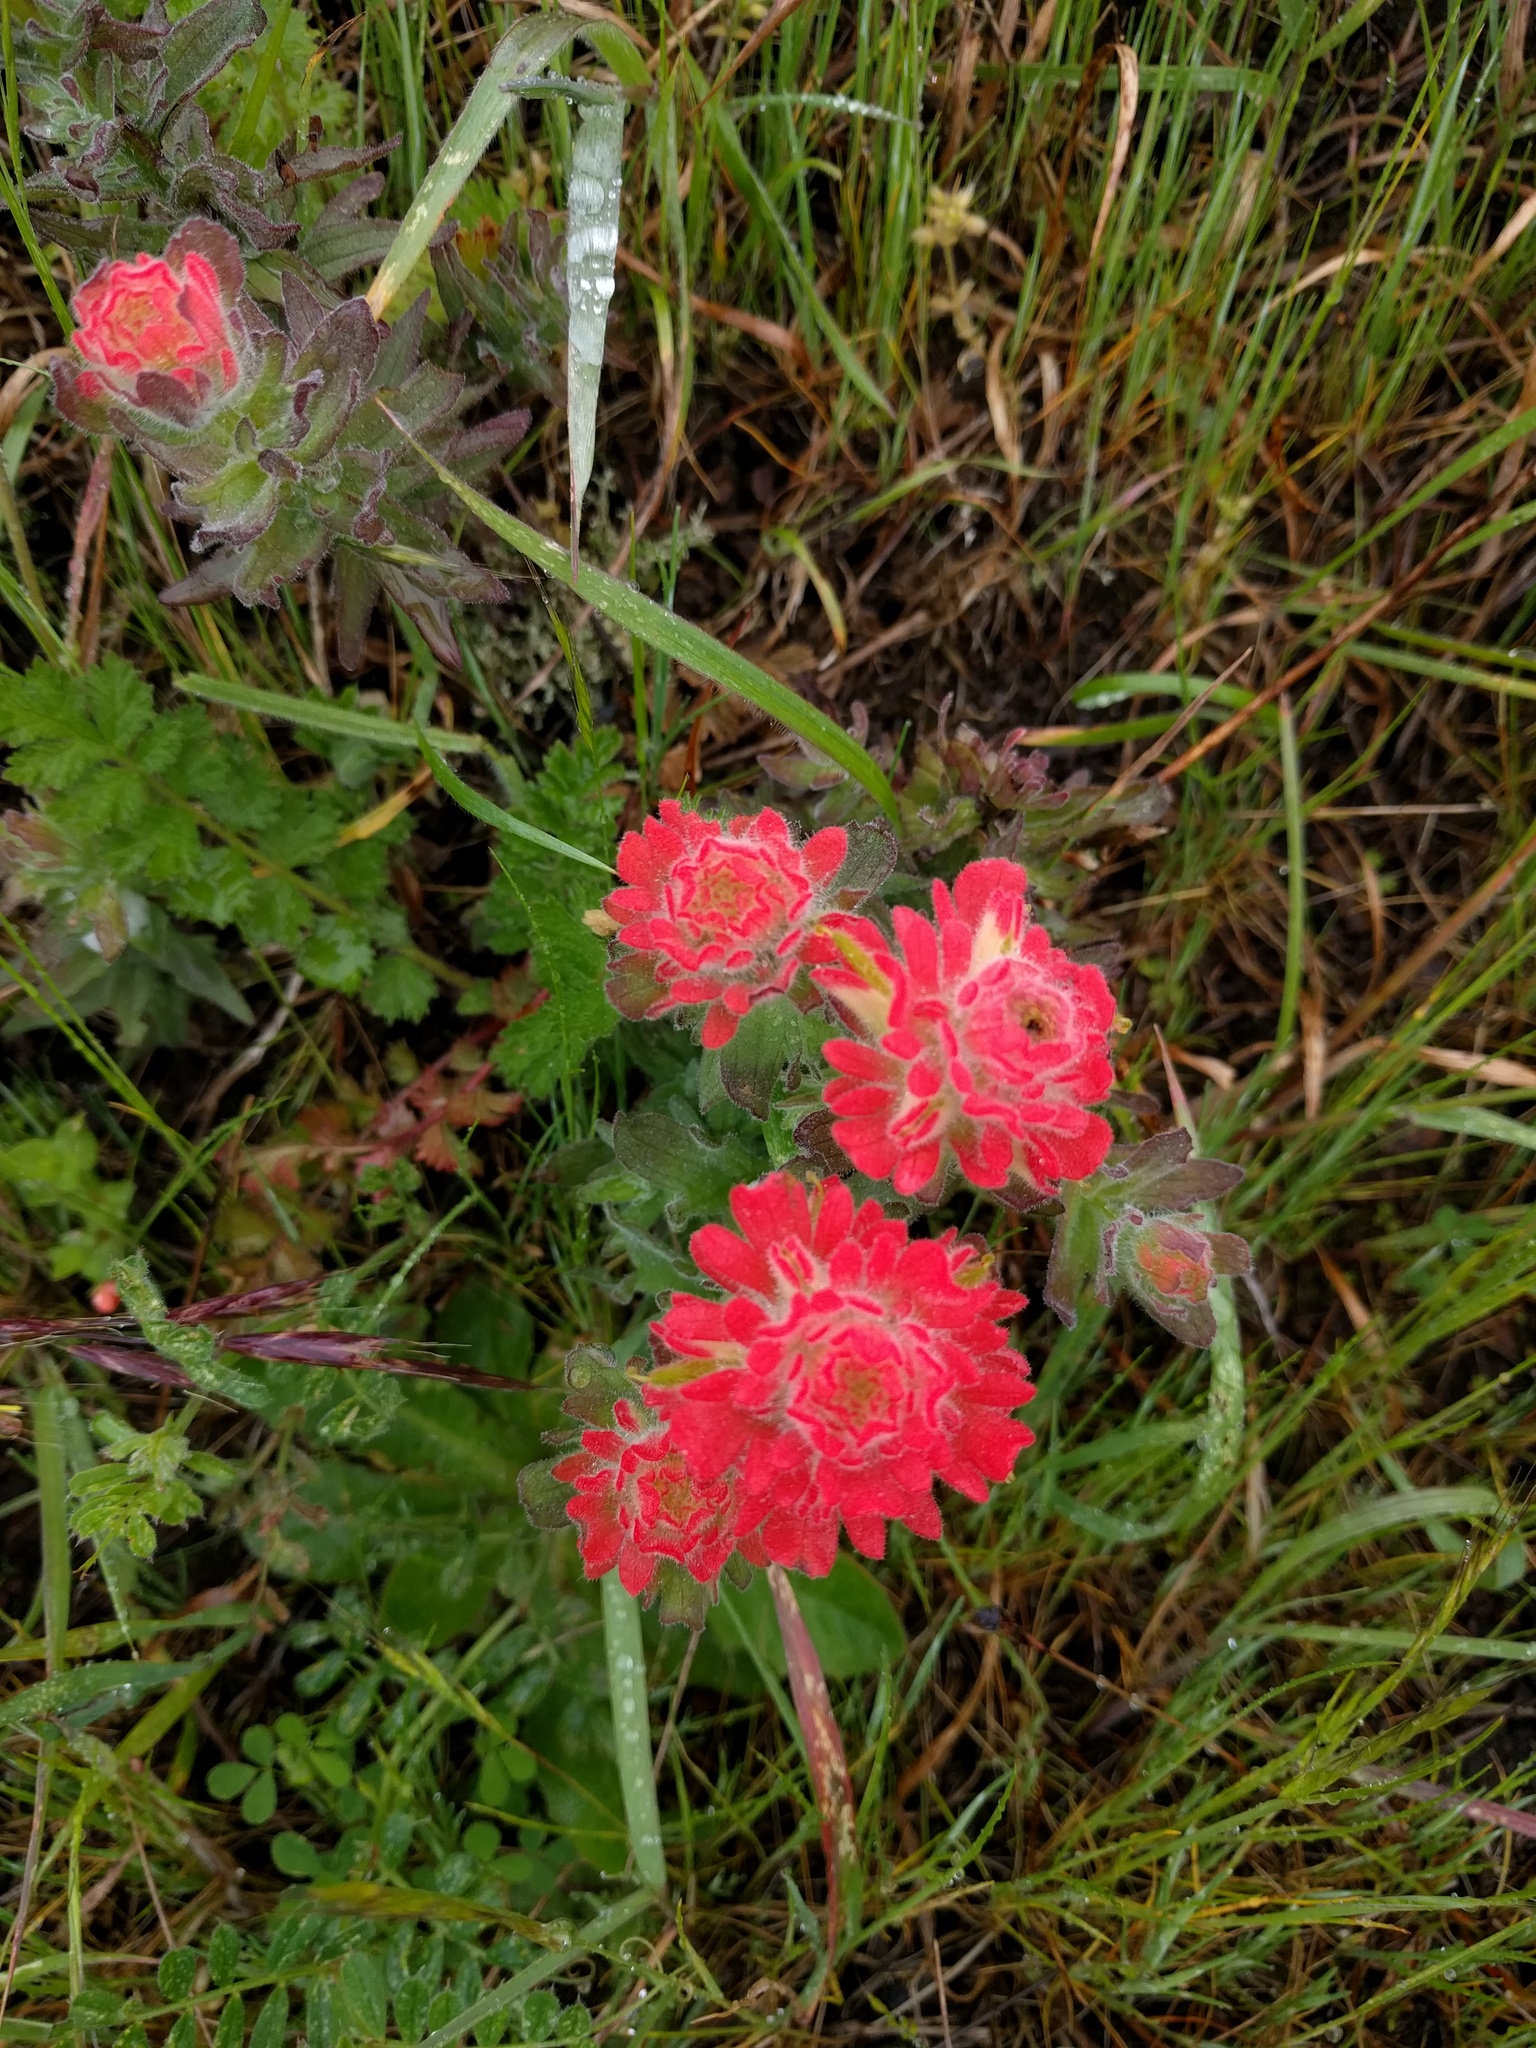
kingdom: Plantae
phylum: Tracheophyta
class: Magnoliopsida
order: Lamiales
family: Orobanchaceae
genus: Castilleja
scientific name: Castilleja affinis
